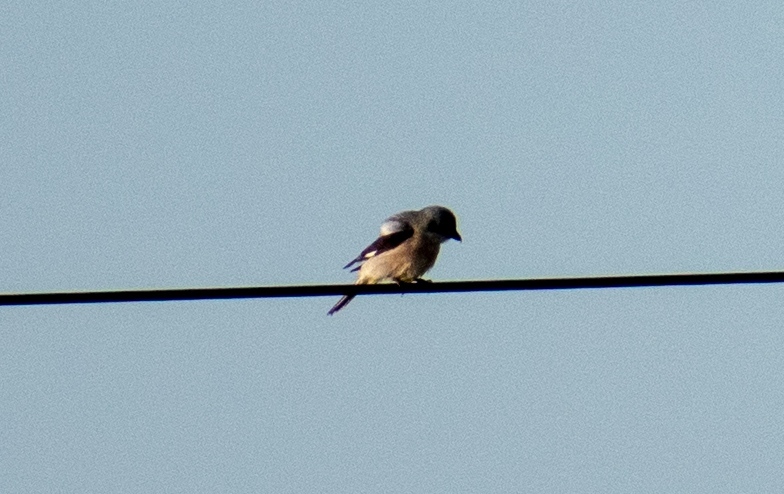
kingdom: Animalia
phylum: Chordata
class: Aves
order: Passeriformes
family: Laniidae
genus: Lanius
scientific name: Lanius minor
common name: Lesser grey shrike
